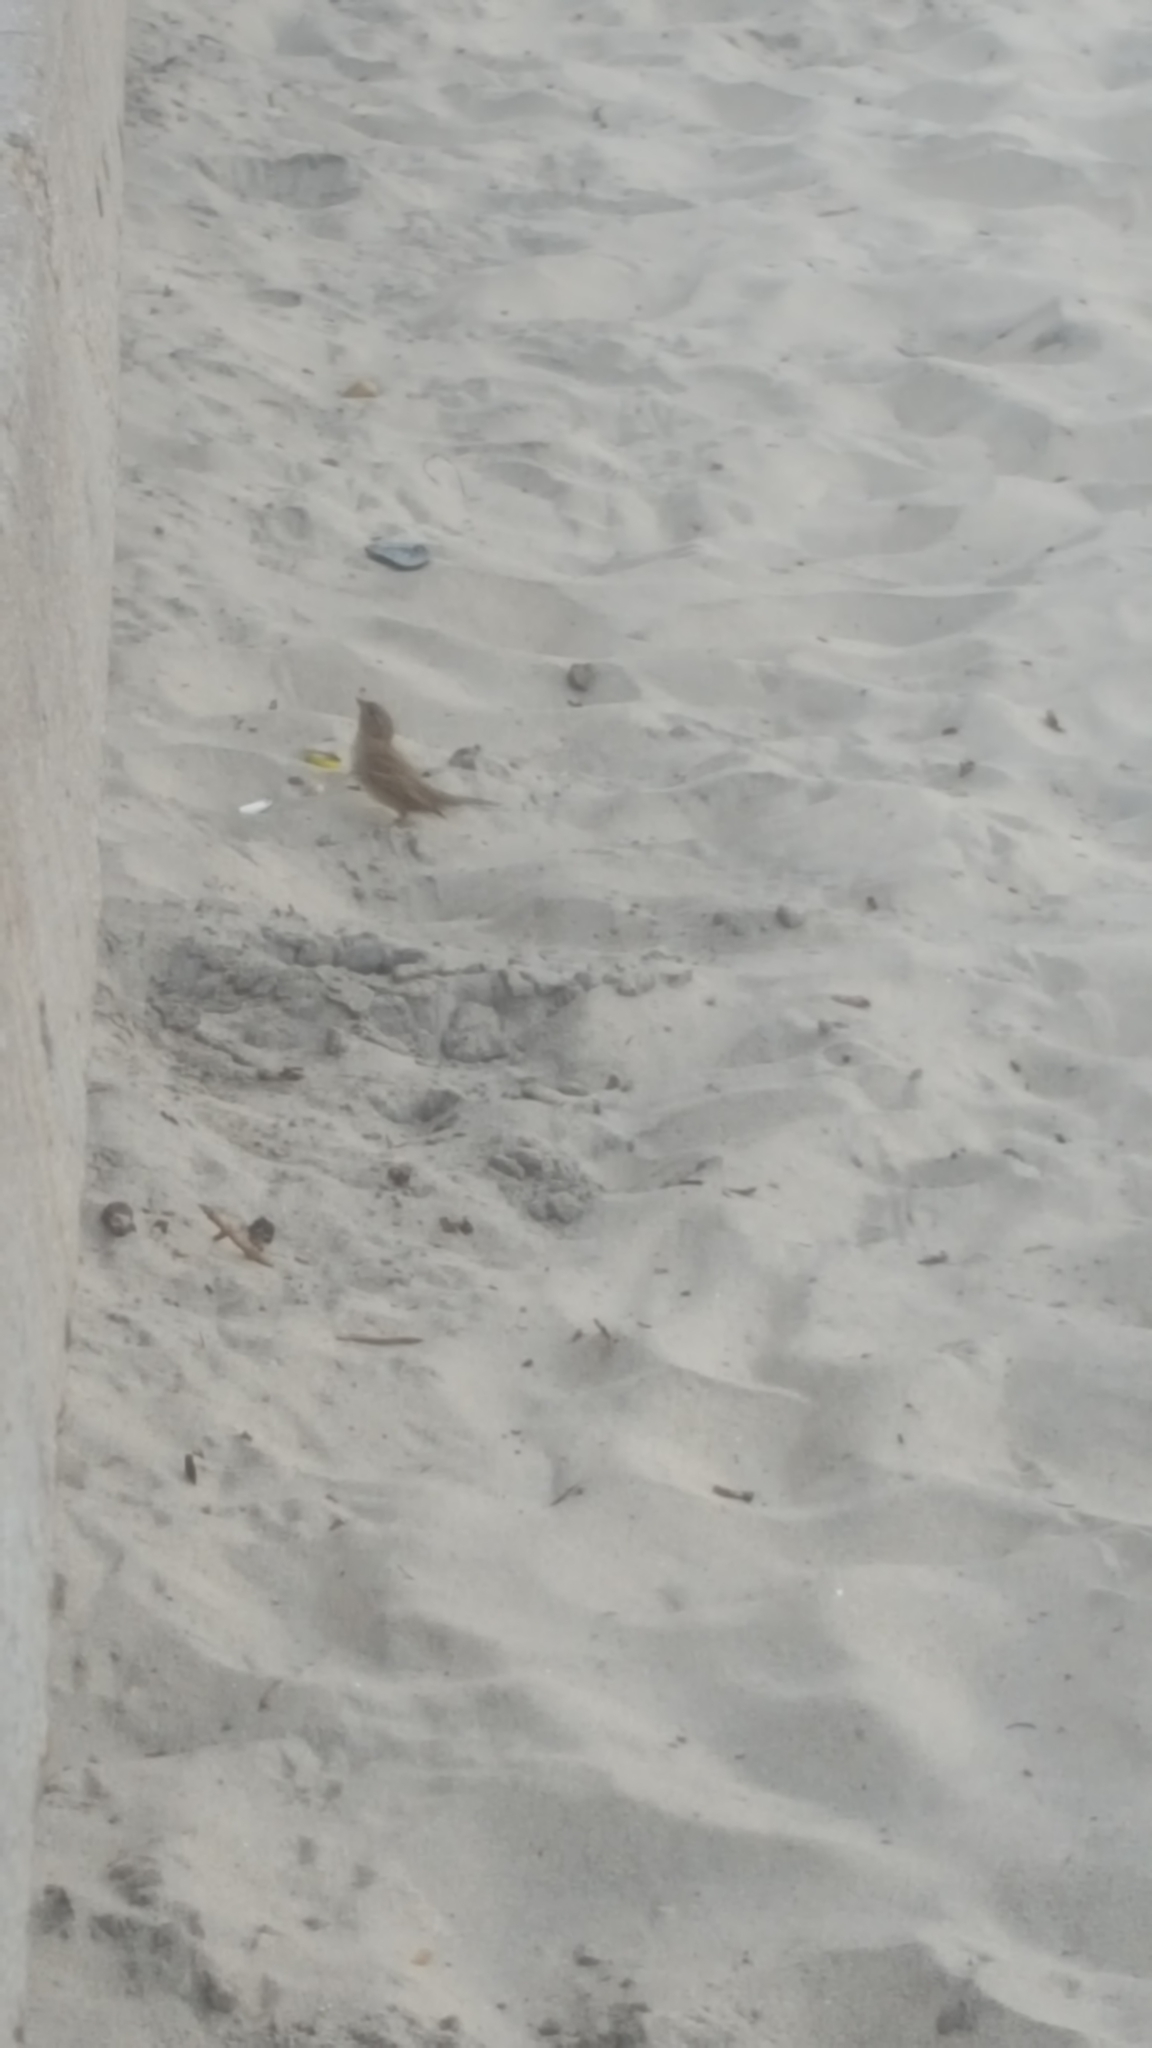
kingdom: Animalia
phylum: Chordata
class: Aves
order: Passeriformes
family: Passeridae
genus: Passer
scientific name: Passer domesticus
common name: House sparrow
